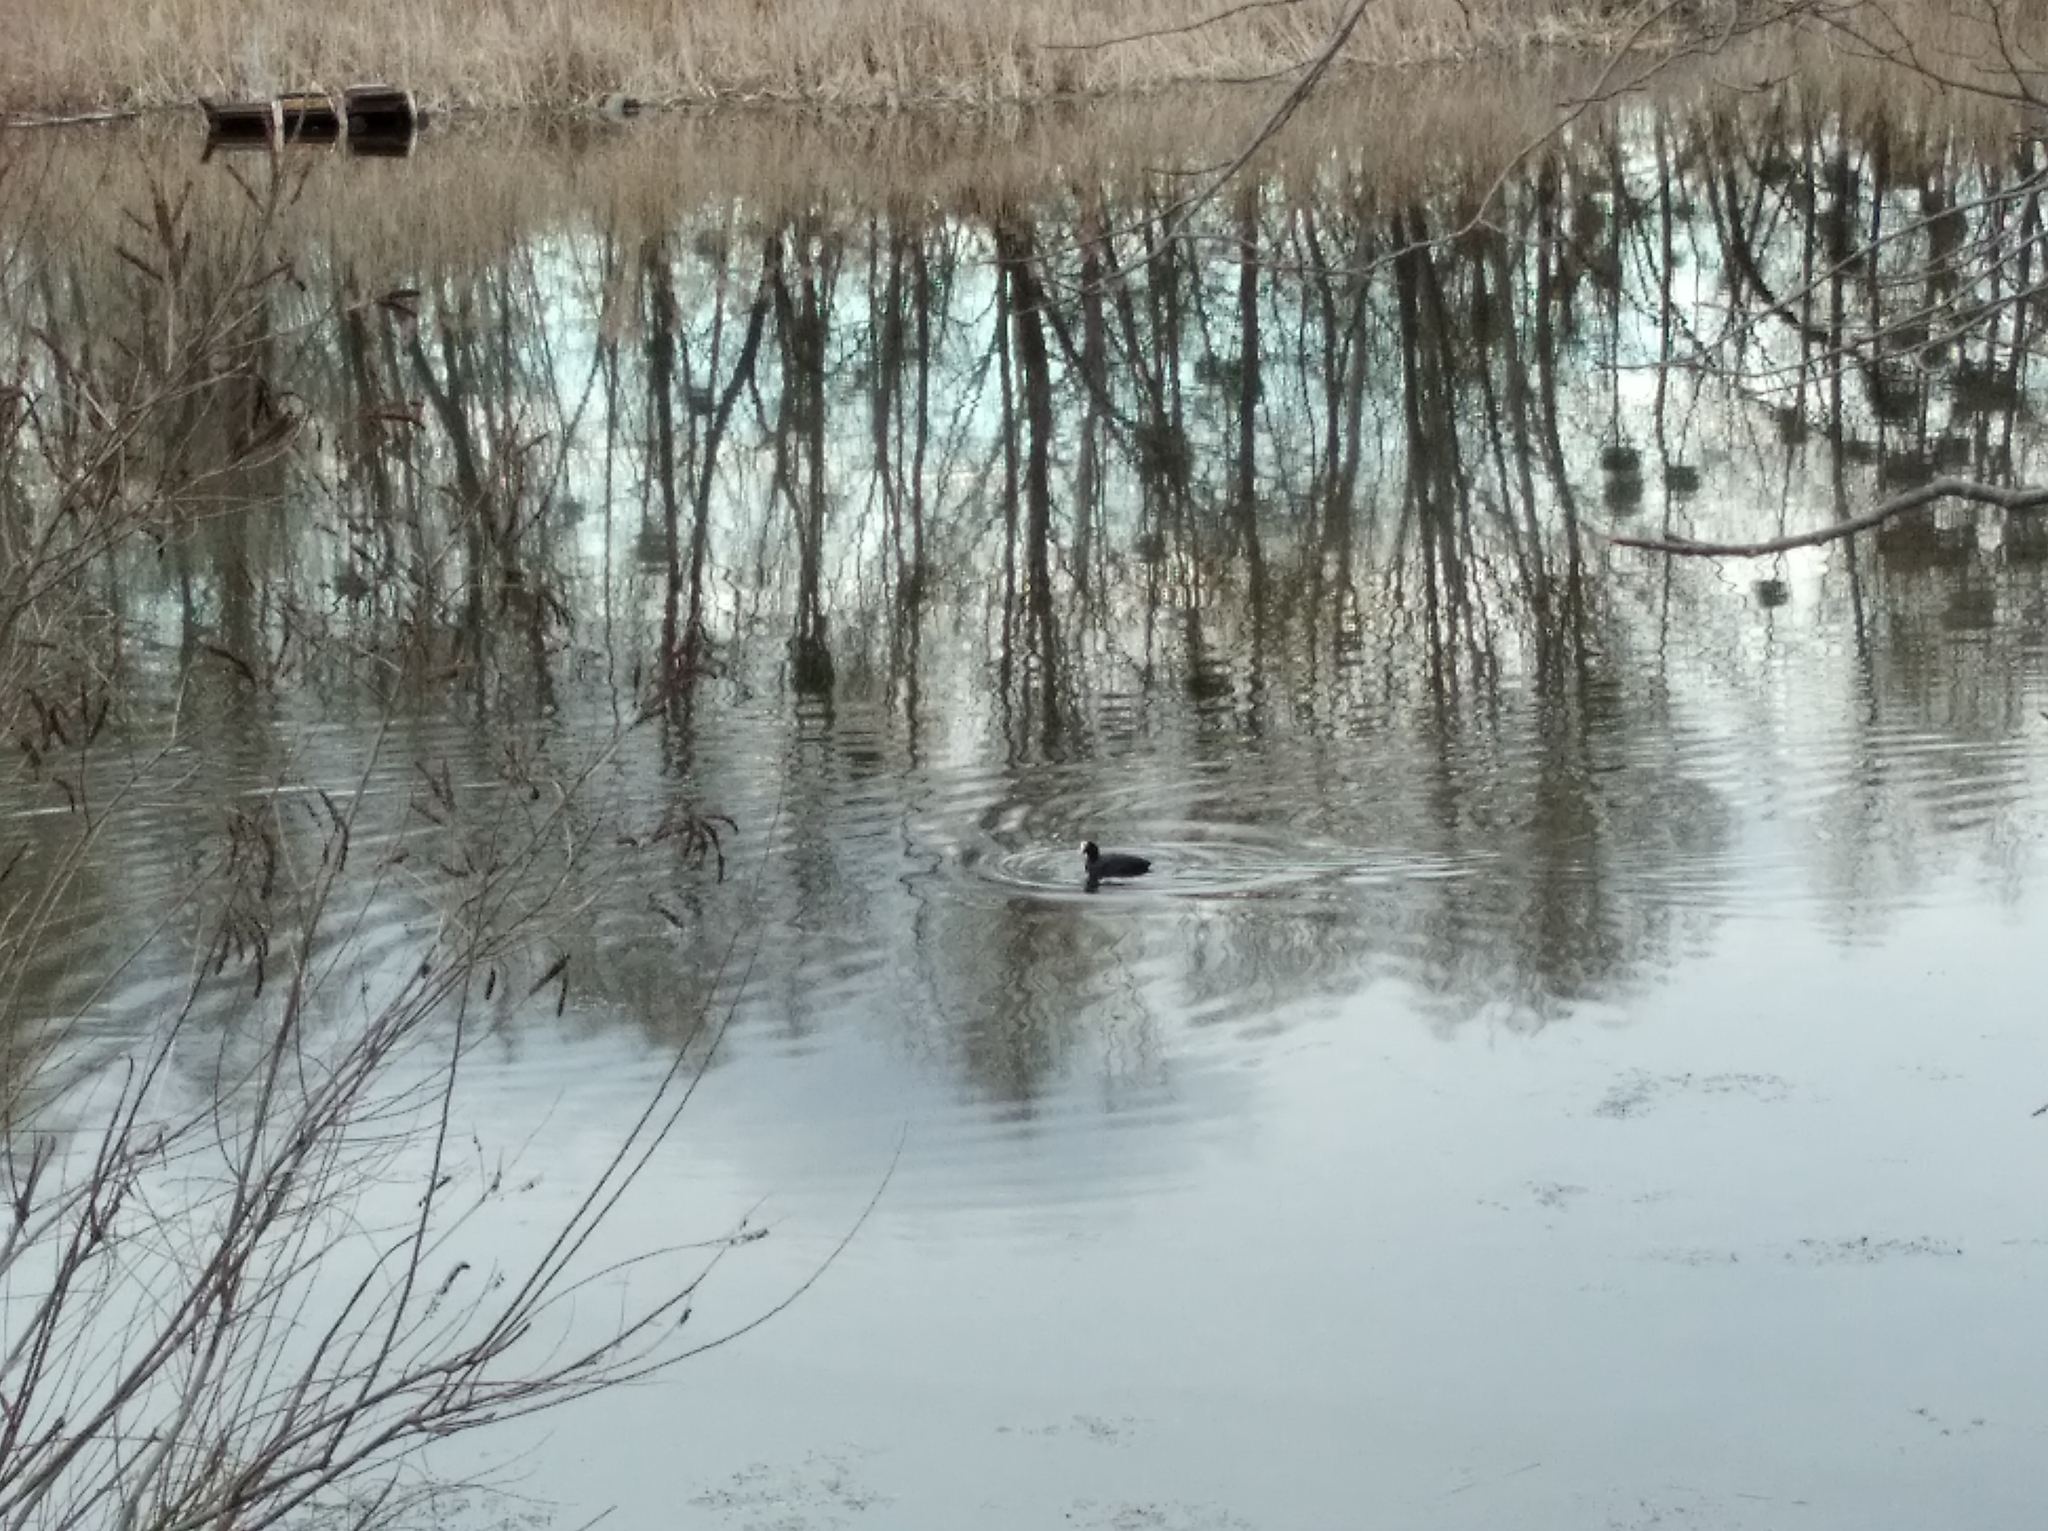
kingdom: Animalia
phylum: Chordata
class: Aves
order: Gruiformes
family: Rallidae
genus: Fulica
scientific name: Fulica atra
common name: Eurasian coot
